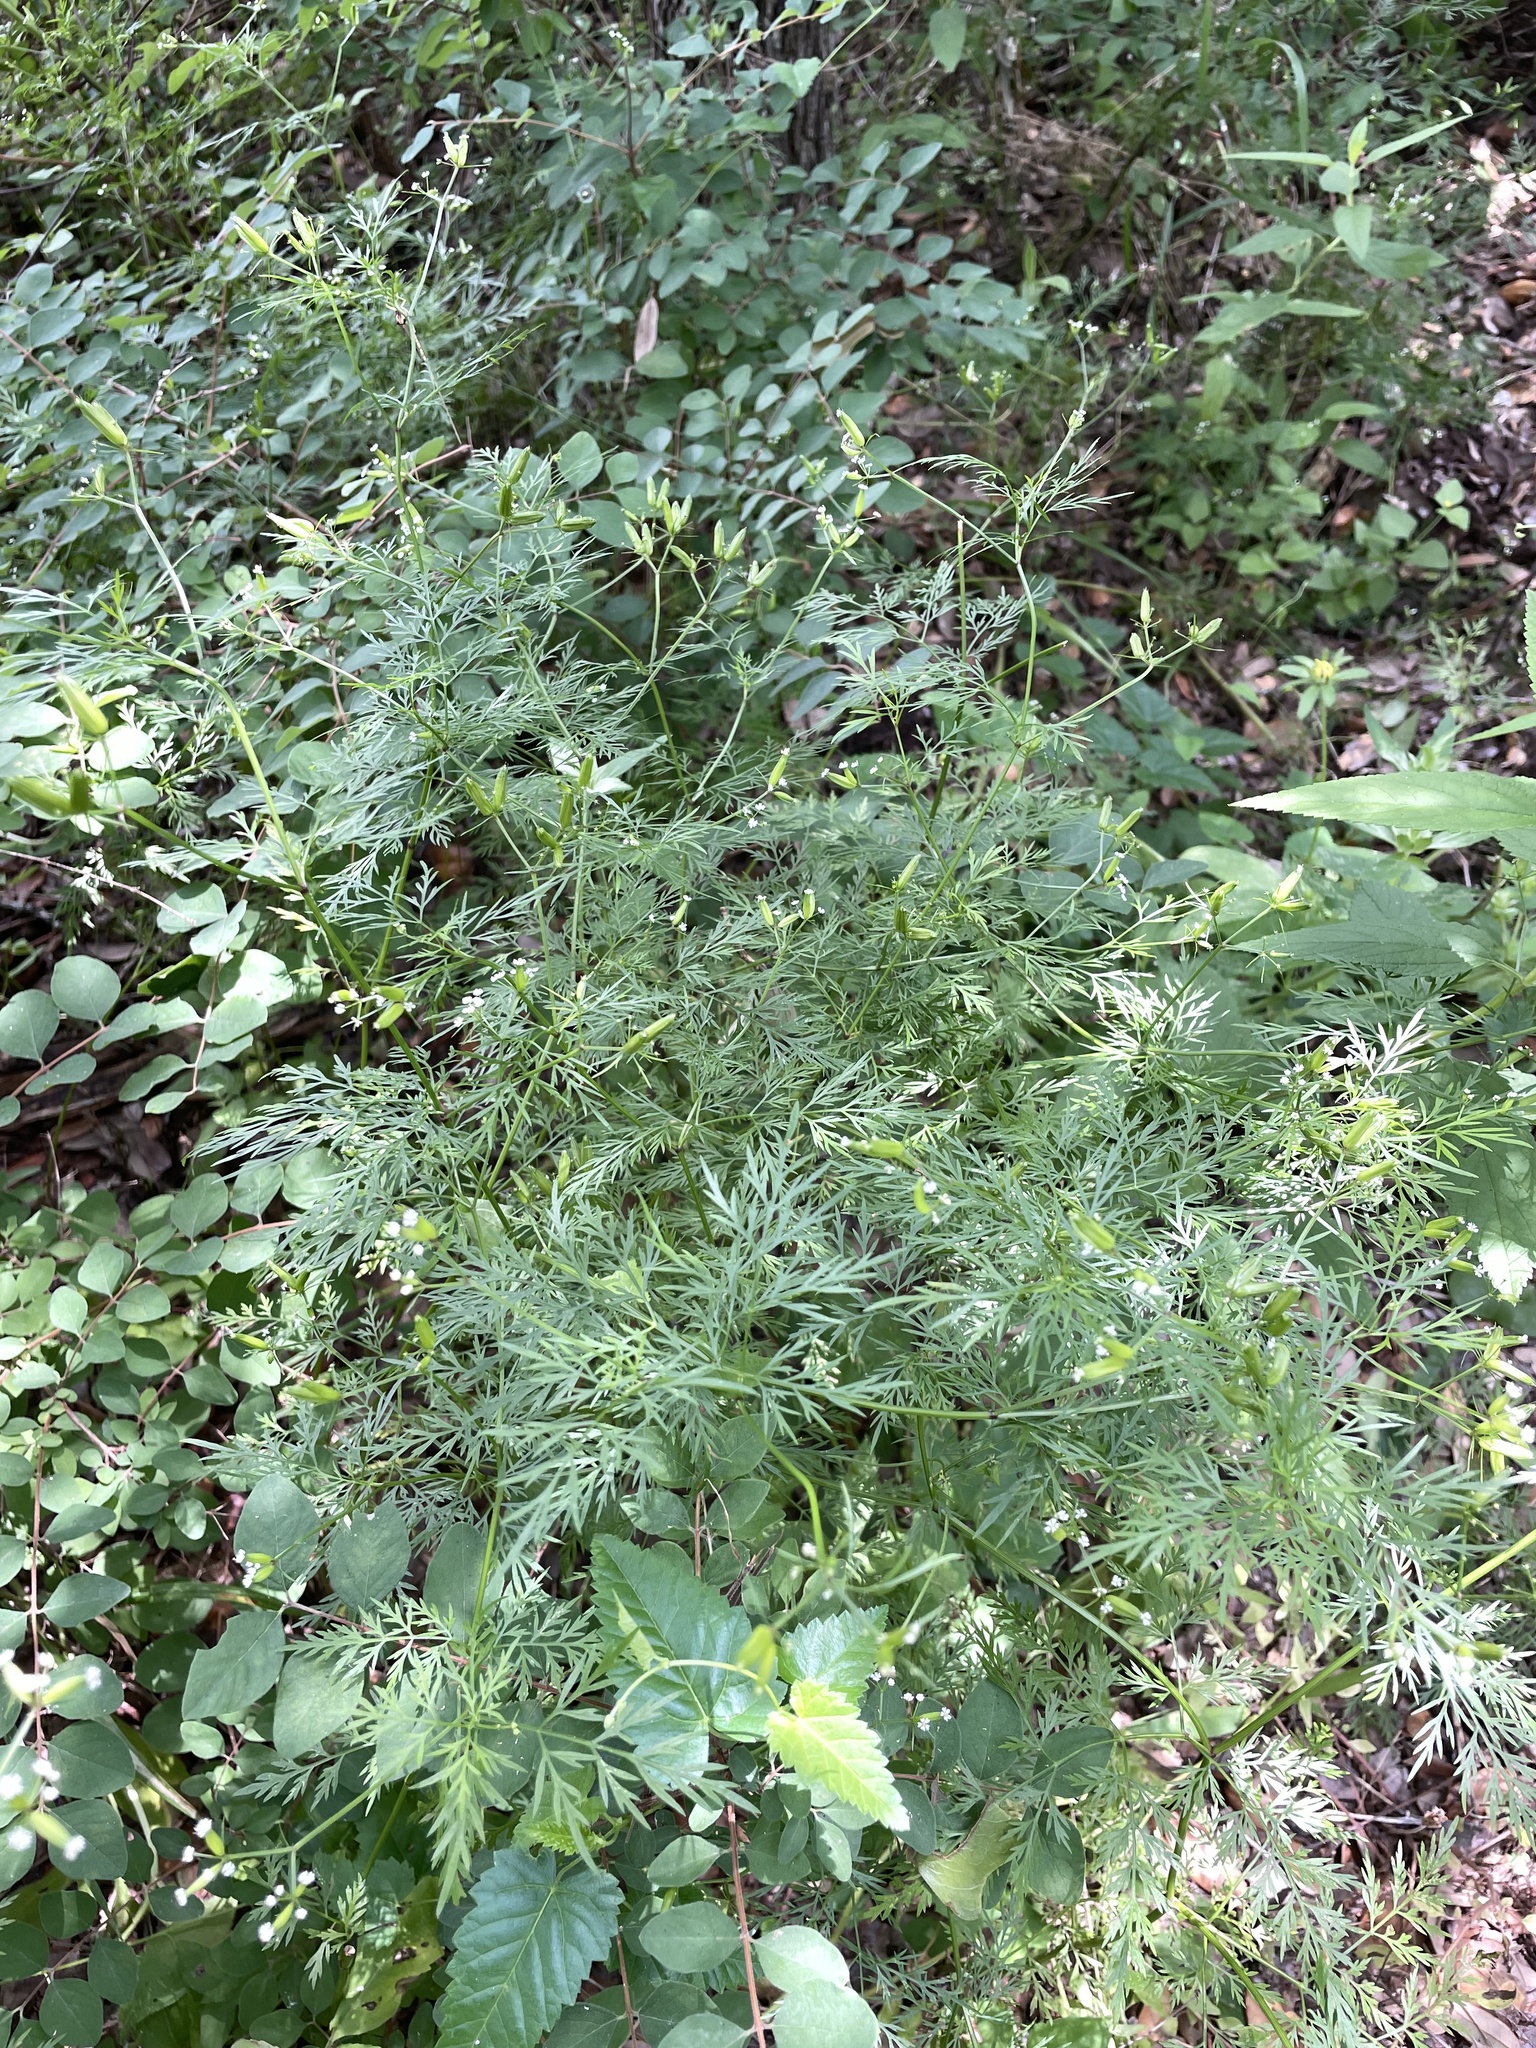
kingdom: Plantae
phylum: Tracheophyta
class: Magnoliopsida
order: Apiales
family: Apiaceae
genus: Trepocarpus
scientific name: Trepocarpus aethusae
